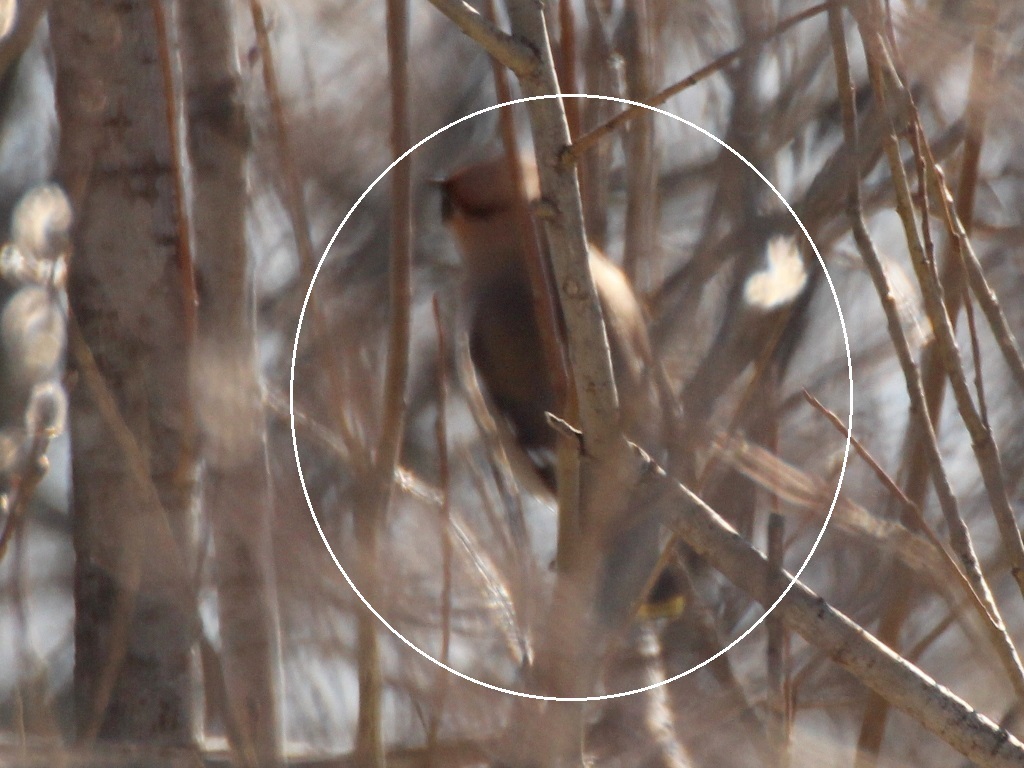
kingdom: Animalia
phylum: Chordata
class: Aves
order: Passeriformes
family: Bombycillidae
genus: Bombycilla
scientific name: Bombycilla garrulus
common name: Bohemian waxwing
